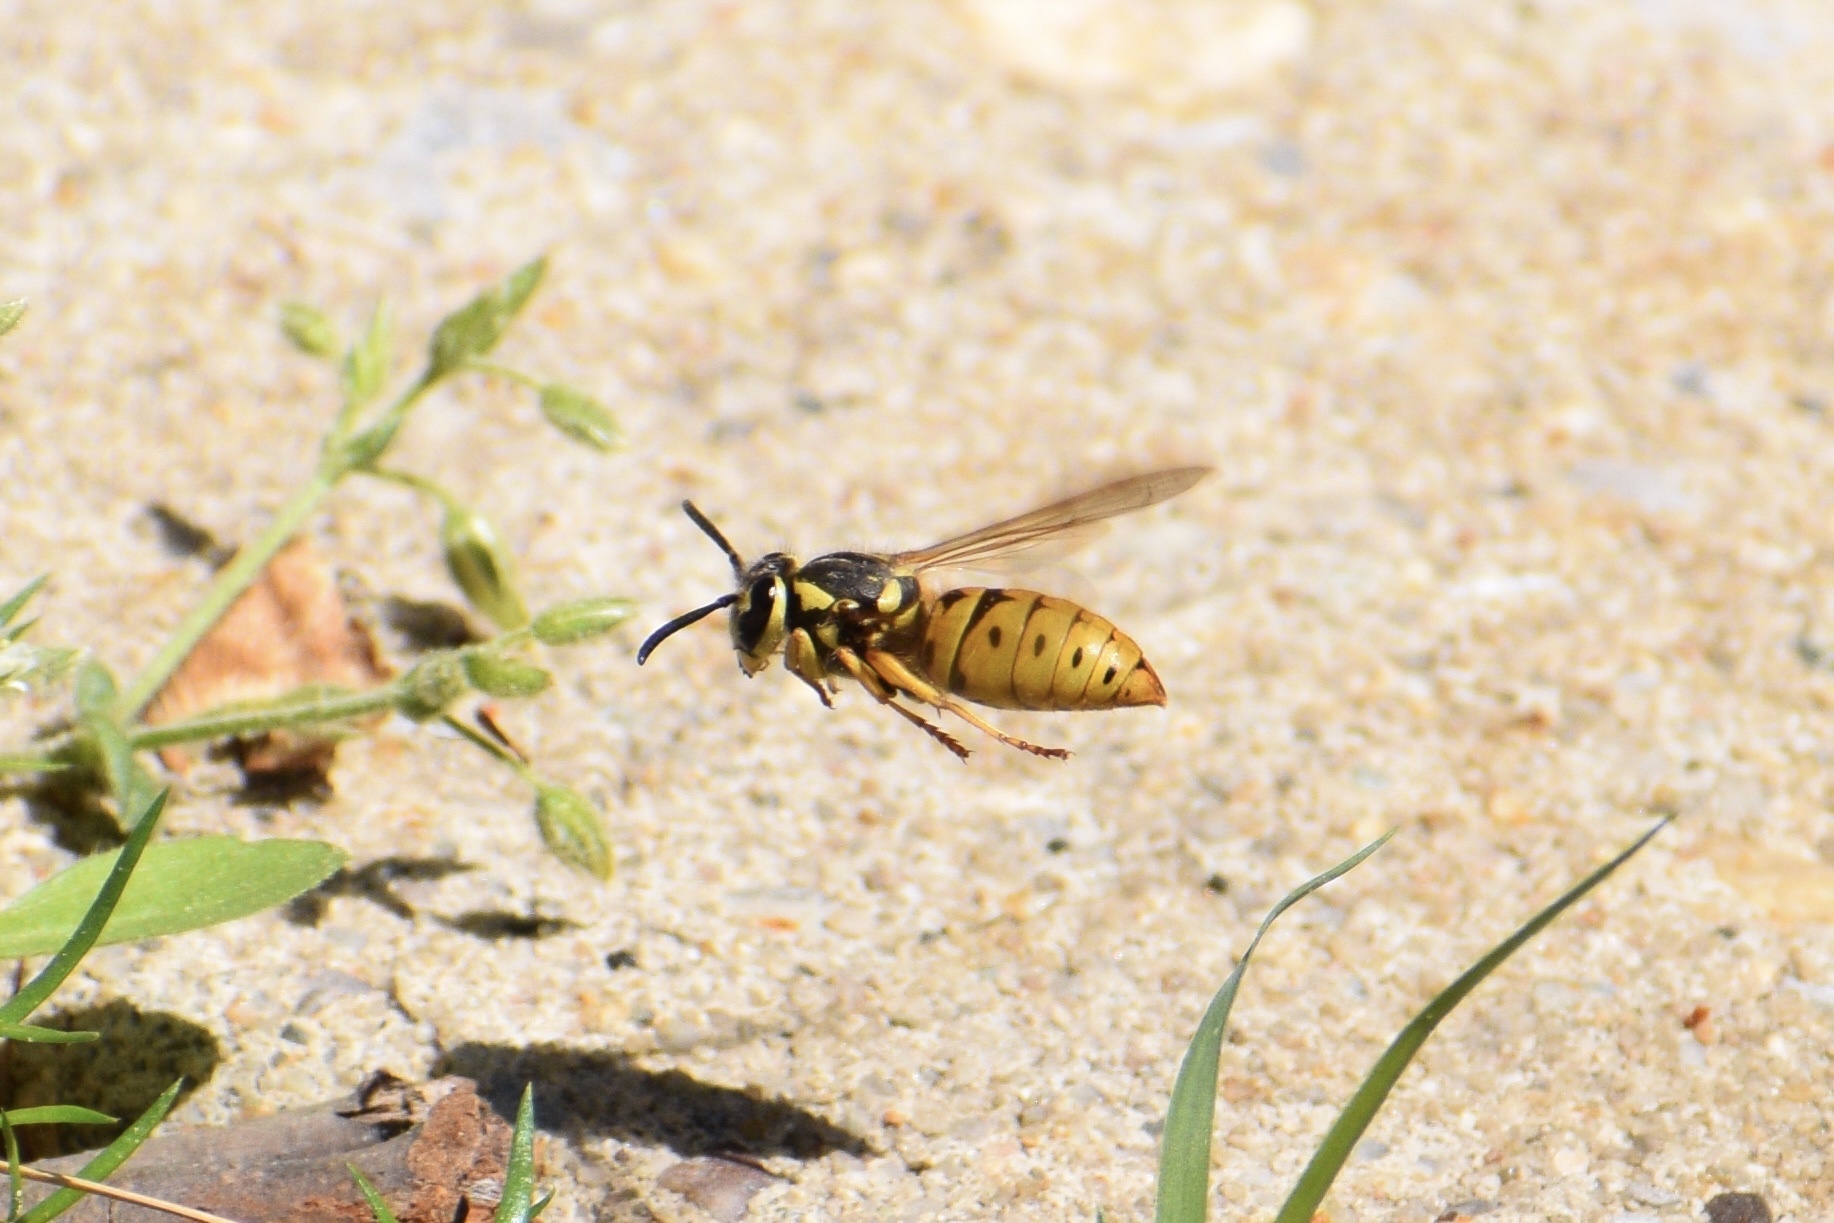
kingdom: Animalia
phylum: Arthropoda
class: Insecta
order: Hymenoptera
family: Vespidae
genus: Vespula
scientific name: Vespula maculifrons
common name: Eastern yellowjacket
